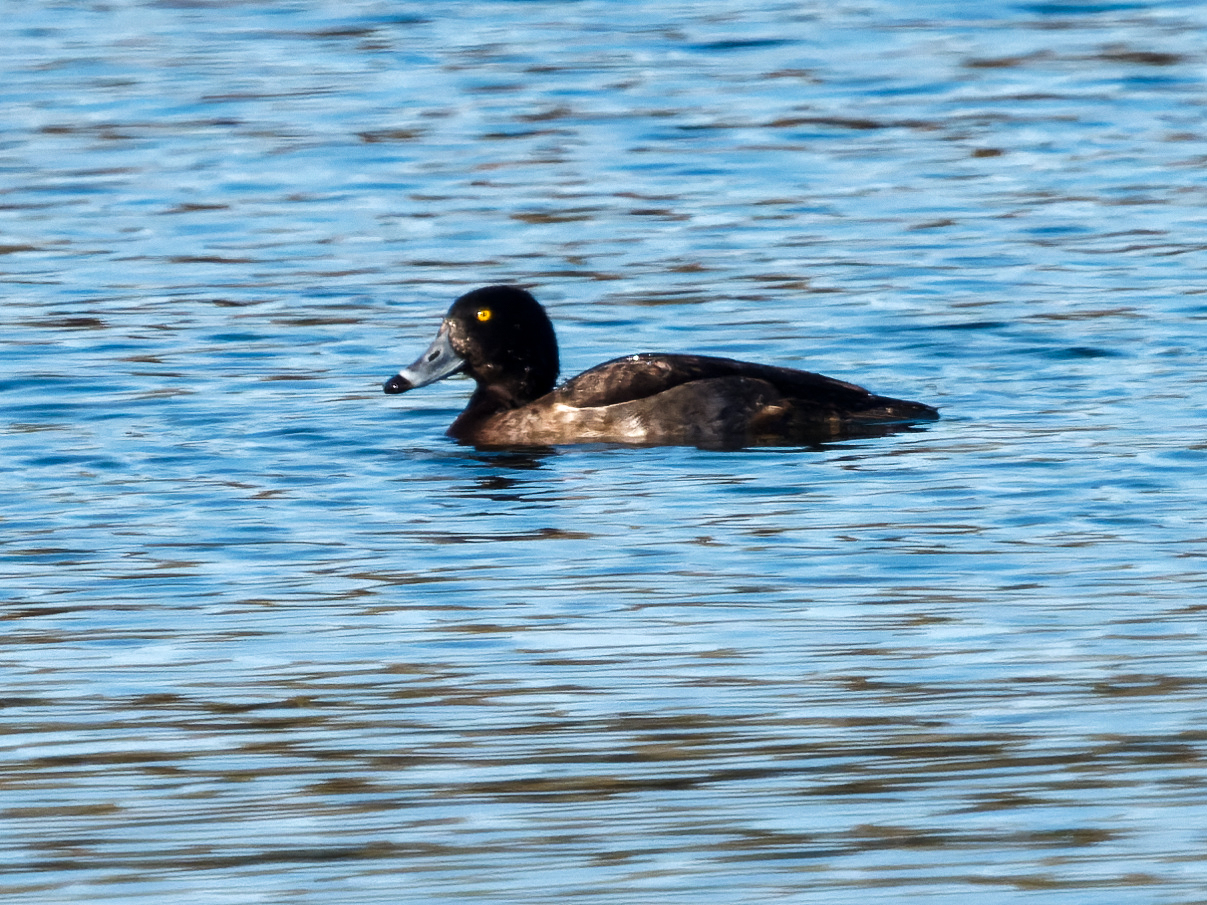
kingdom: Animalia
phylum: Chordata
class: Aves
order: Anseriformes
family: Anatidae
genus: Aythya
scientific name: Aythya fuligula
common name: Tufted duck
